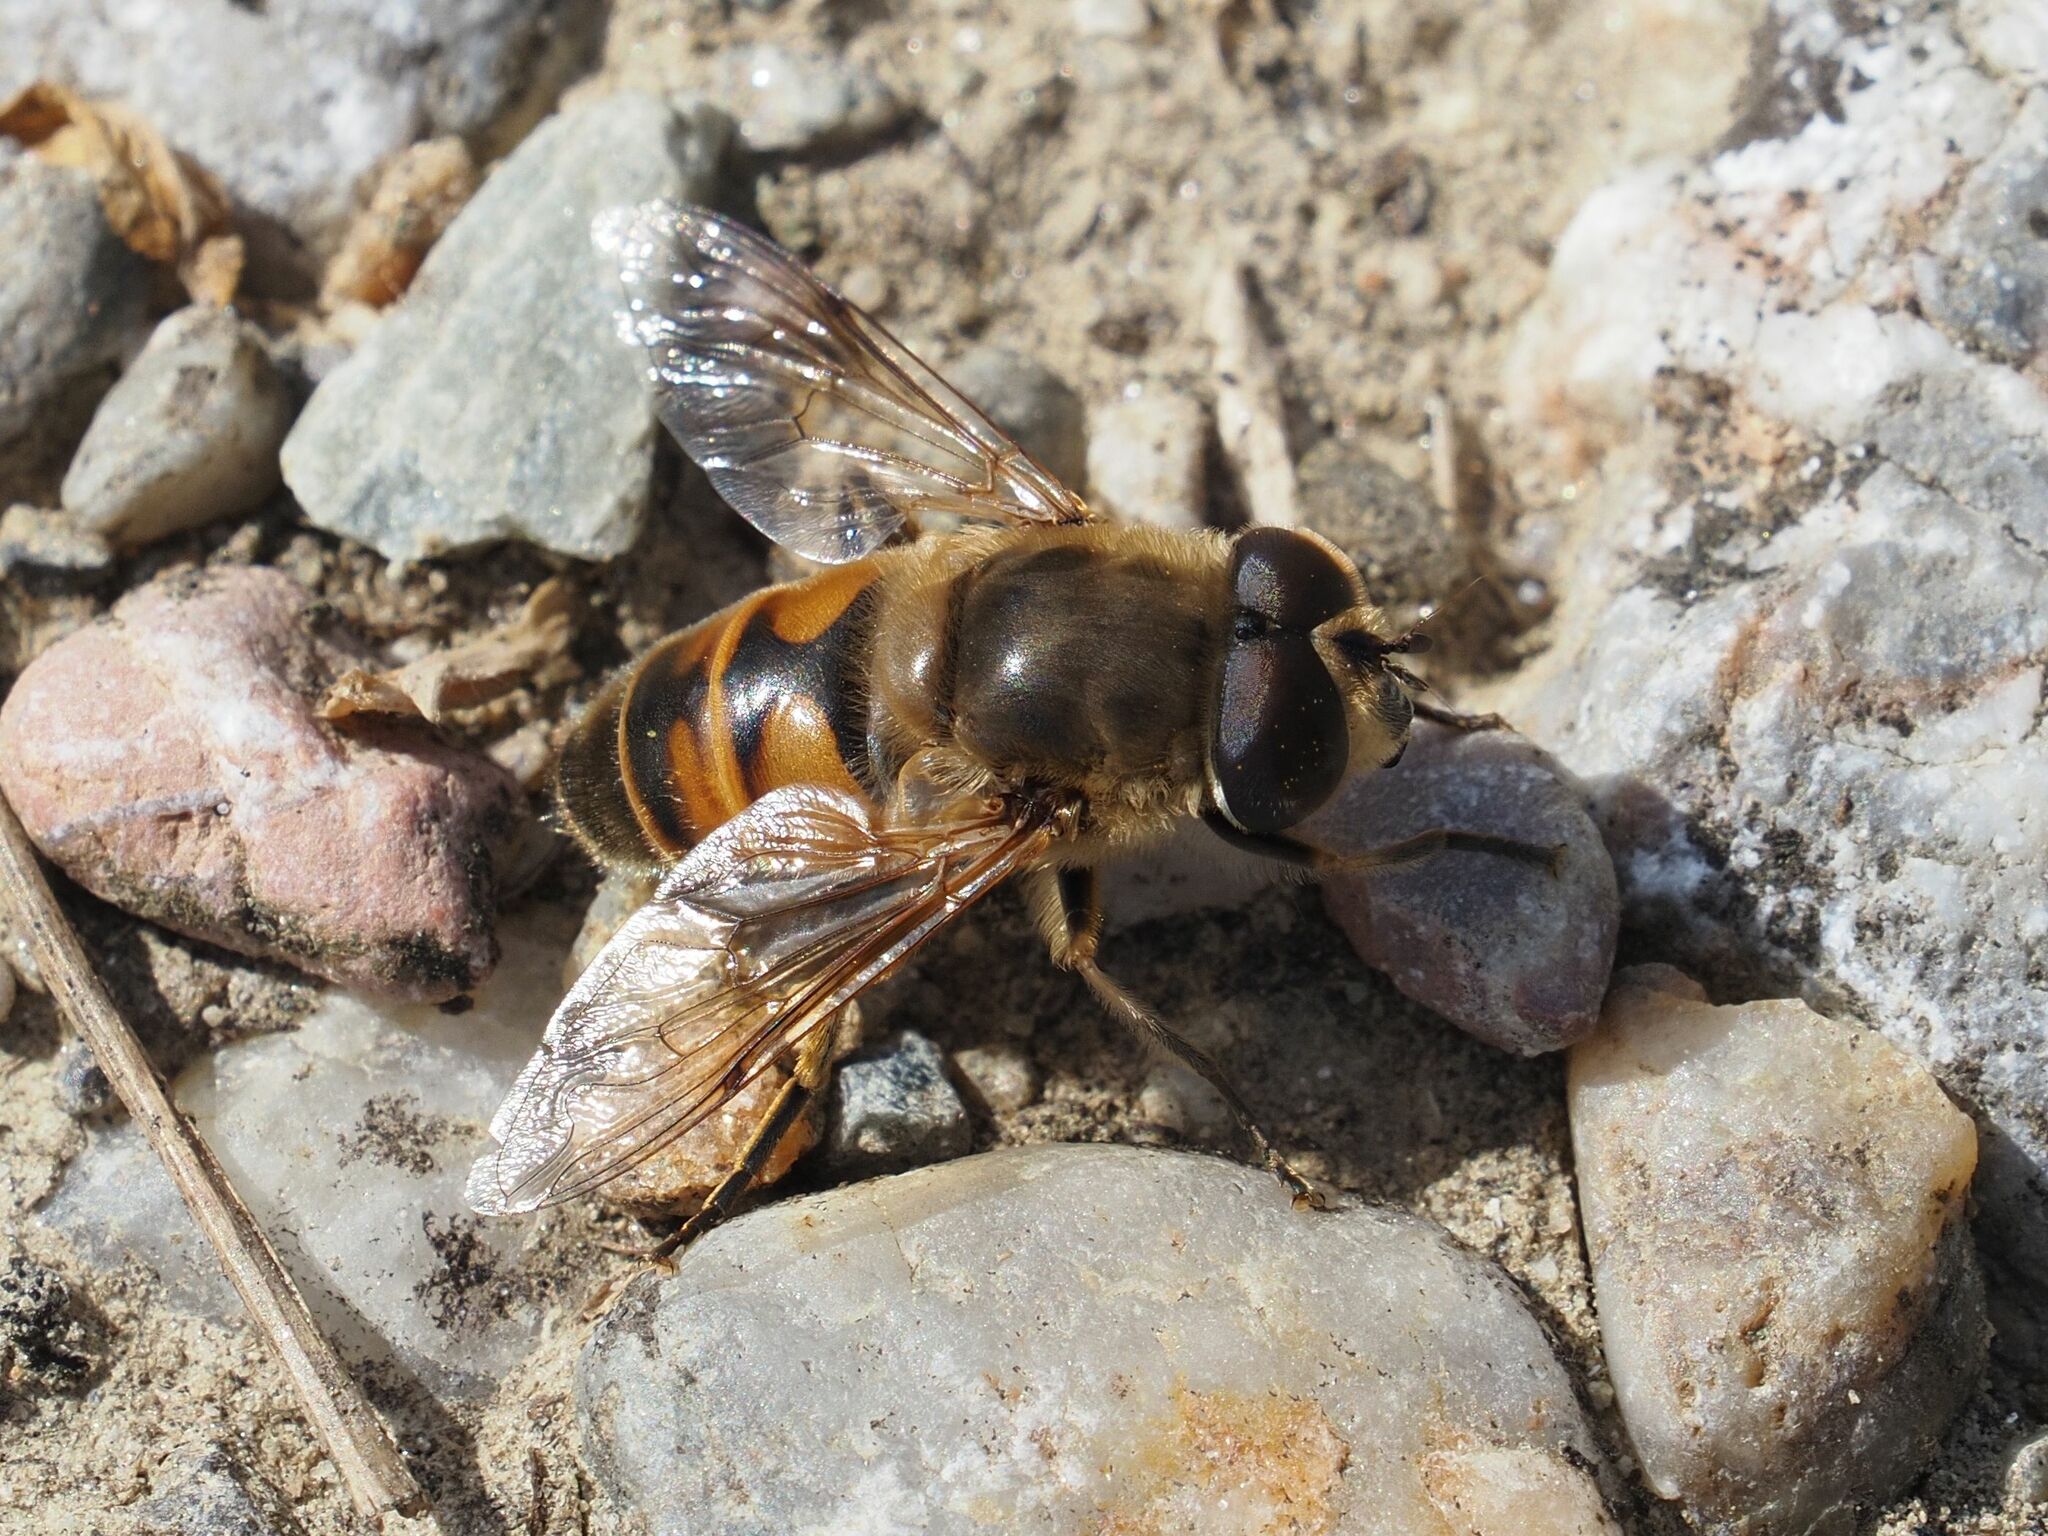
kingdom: Animalia
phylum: Arthropoda
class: Insecta
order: Diptera
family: Syrphidae
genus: Eristalis
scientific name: Eristalis tenax
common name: Drone fly
